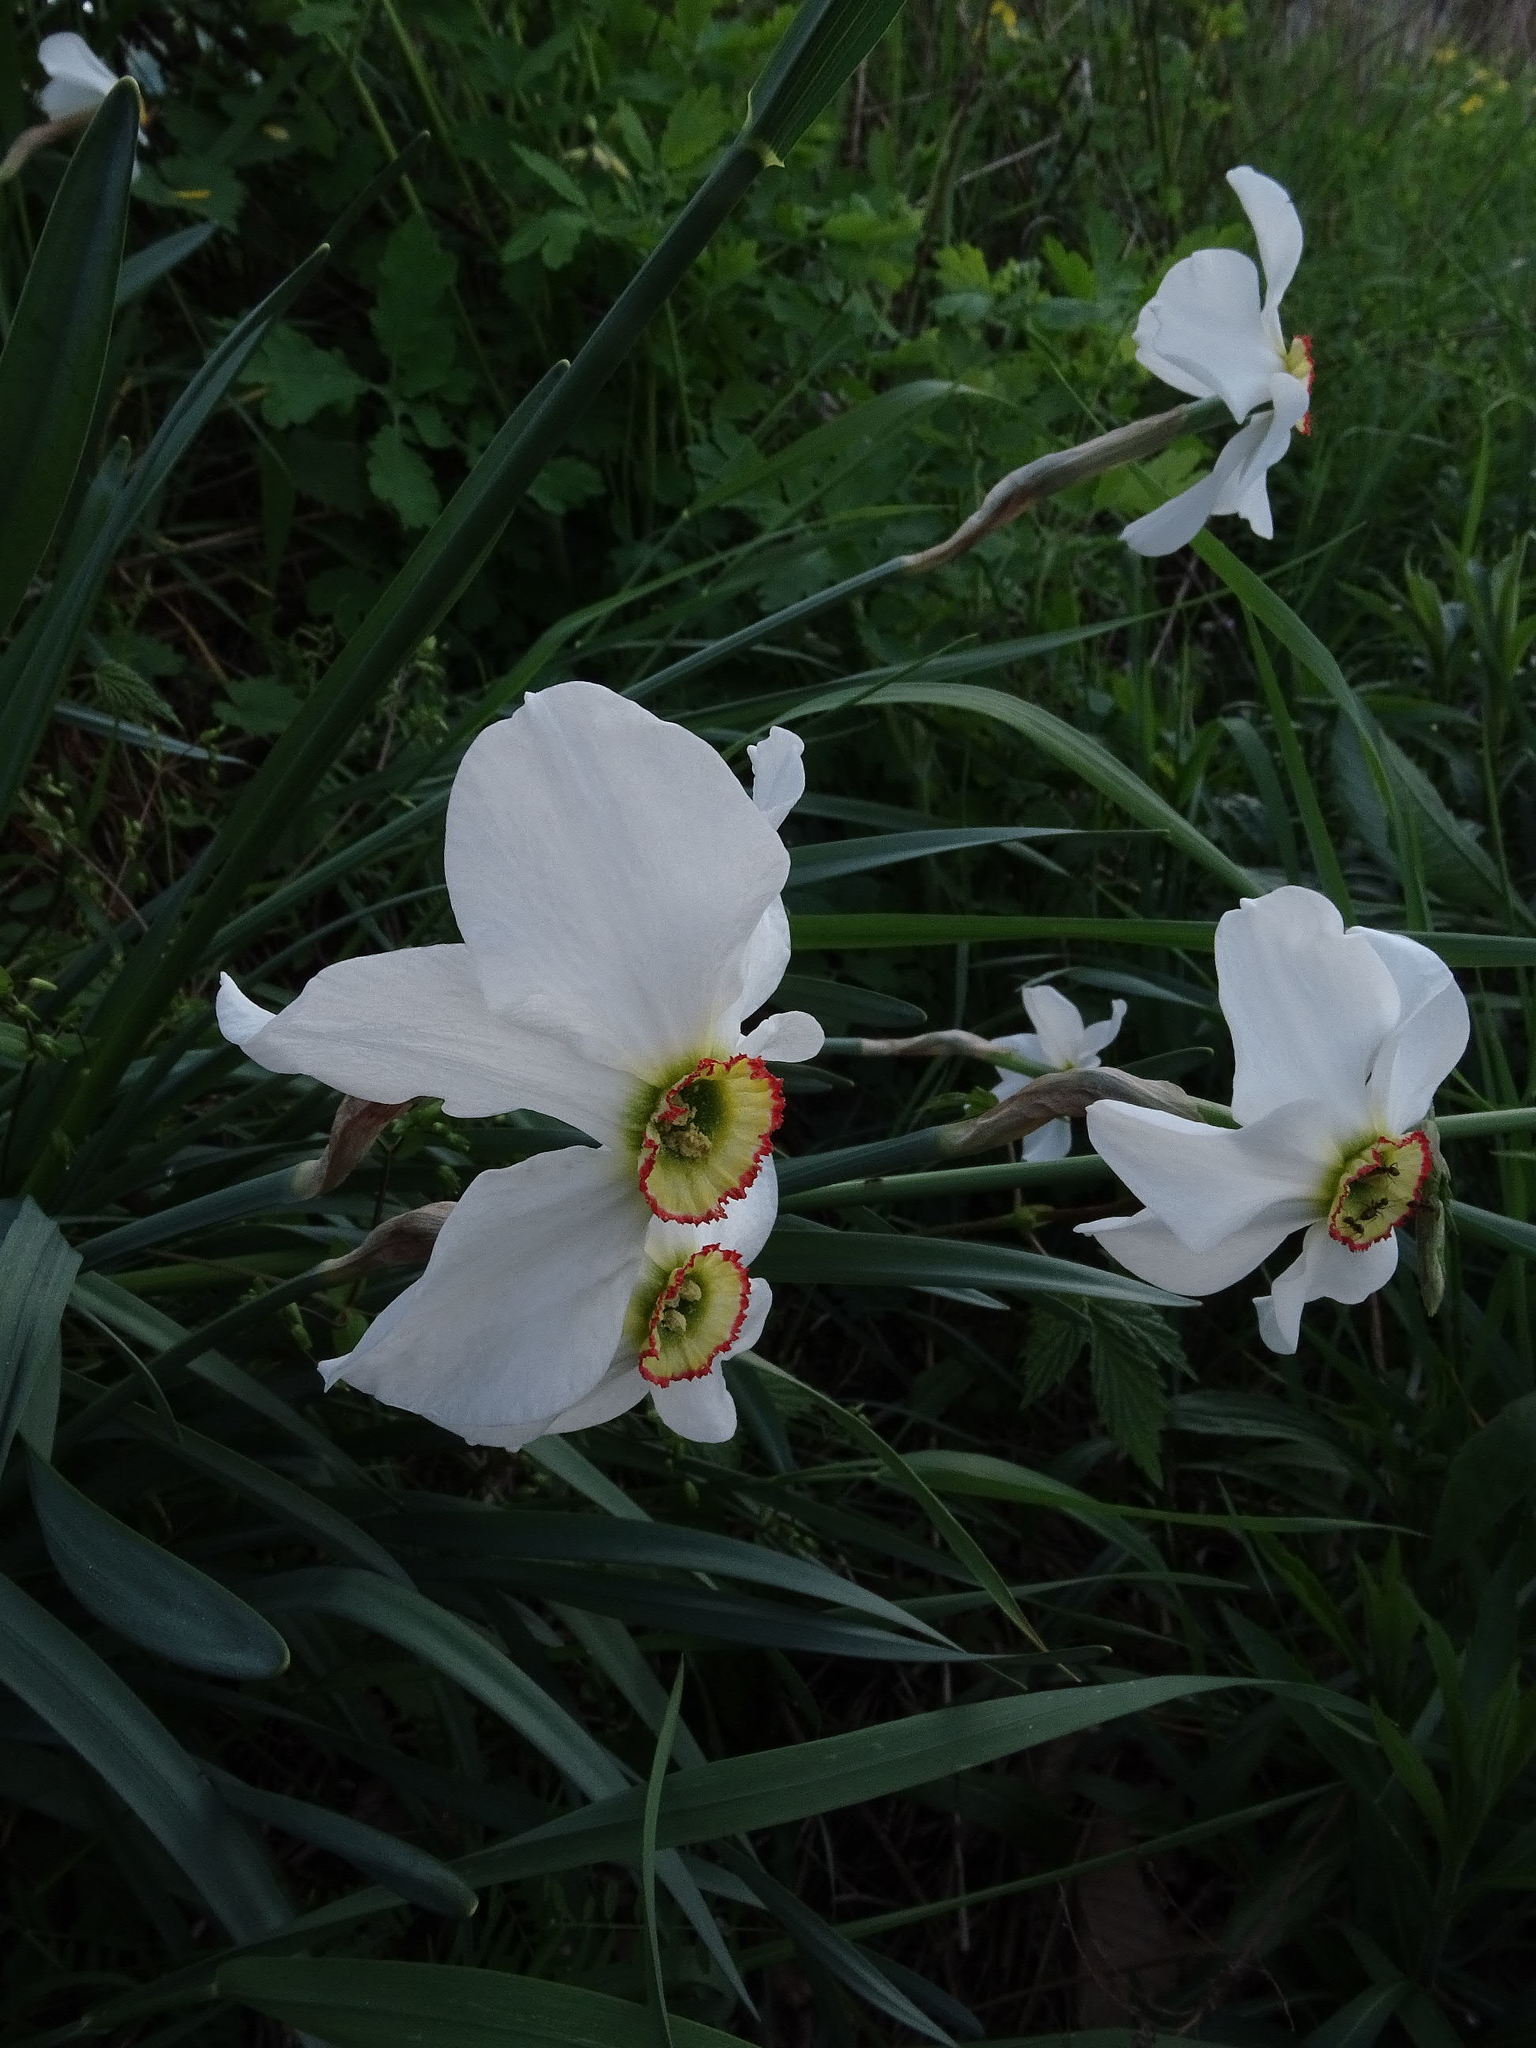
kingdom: Plantae
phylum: Tracheophyta
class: Liliopsida
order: Asparagales
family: Amaryllidaceae
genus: Narcissus
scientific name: Narcissus poeticus
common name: Pheasant's-eye daffodil
